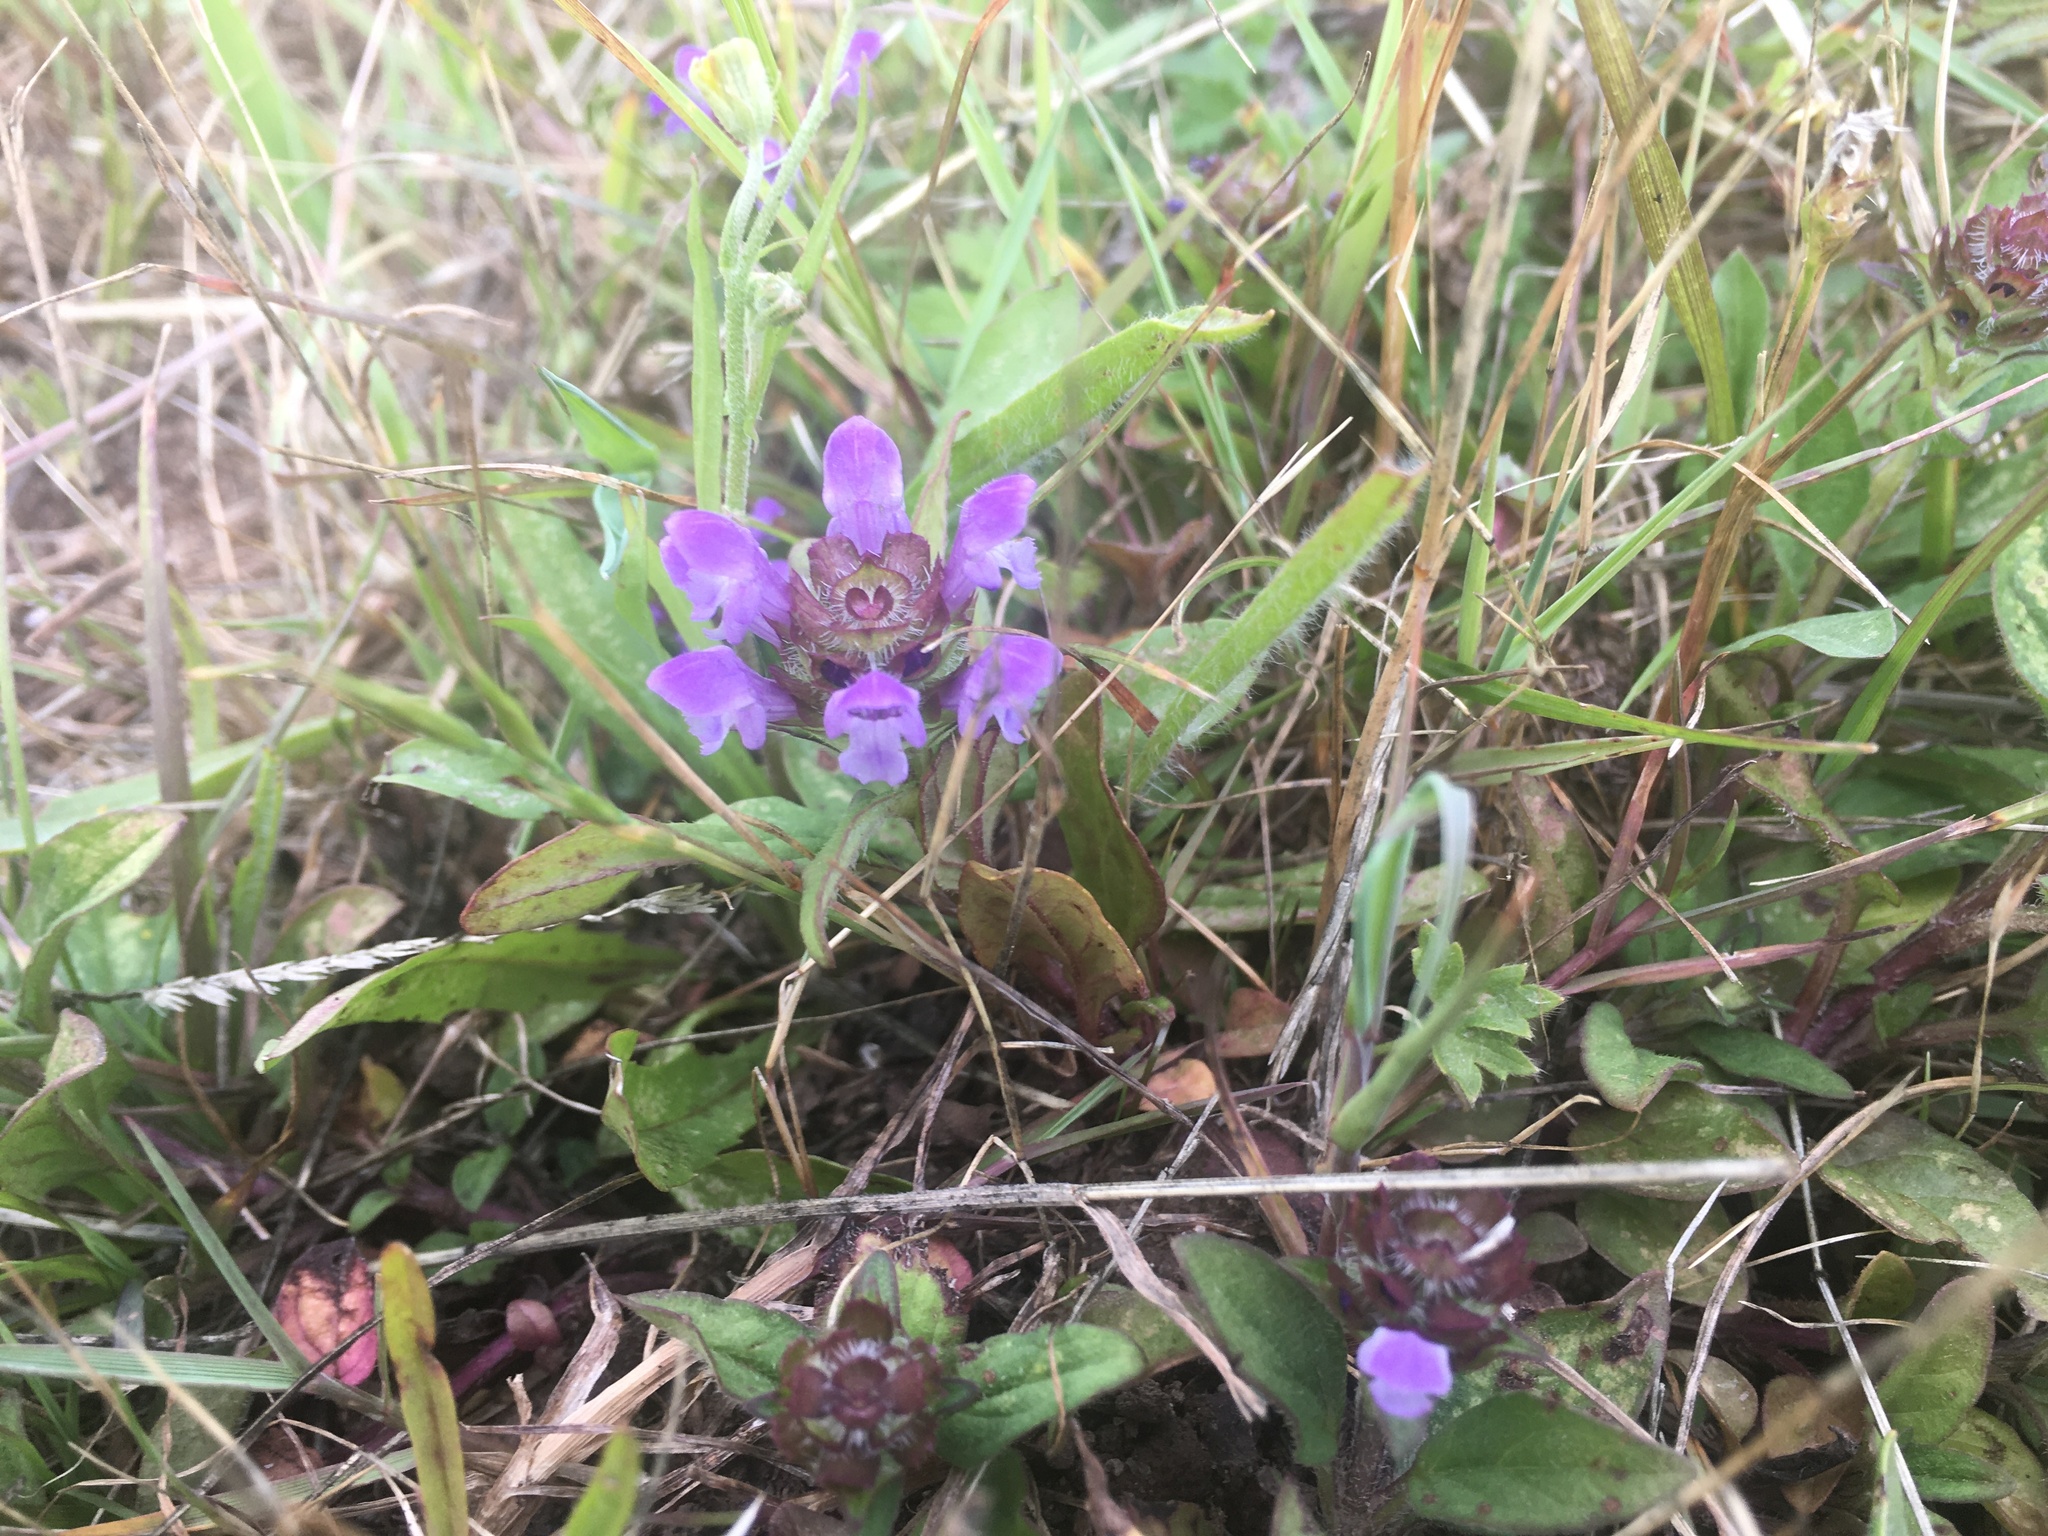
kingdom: Plantae
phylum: Tracheophyta
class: Magnoliopsida
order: Lamiales
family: Lamiaceae
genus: Prunella
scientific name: Prunella vulgaris
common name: Heal-all
